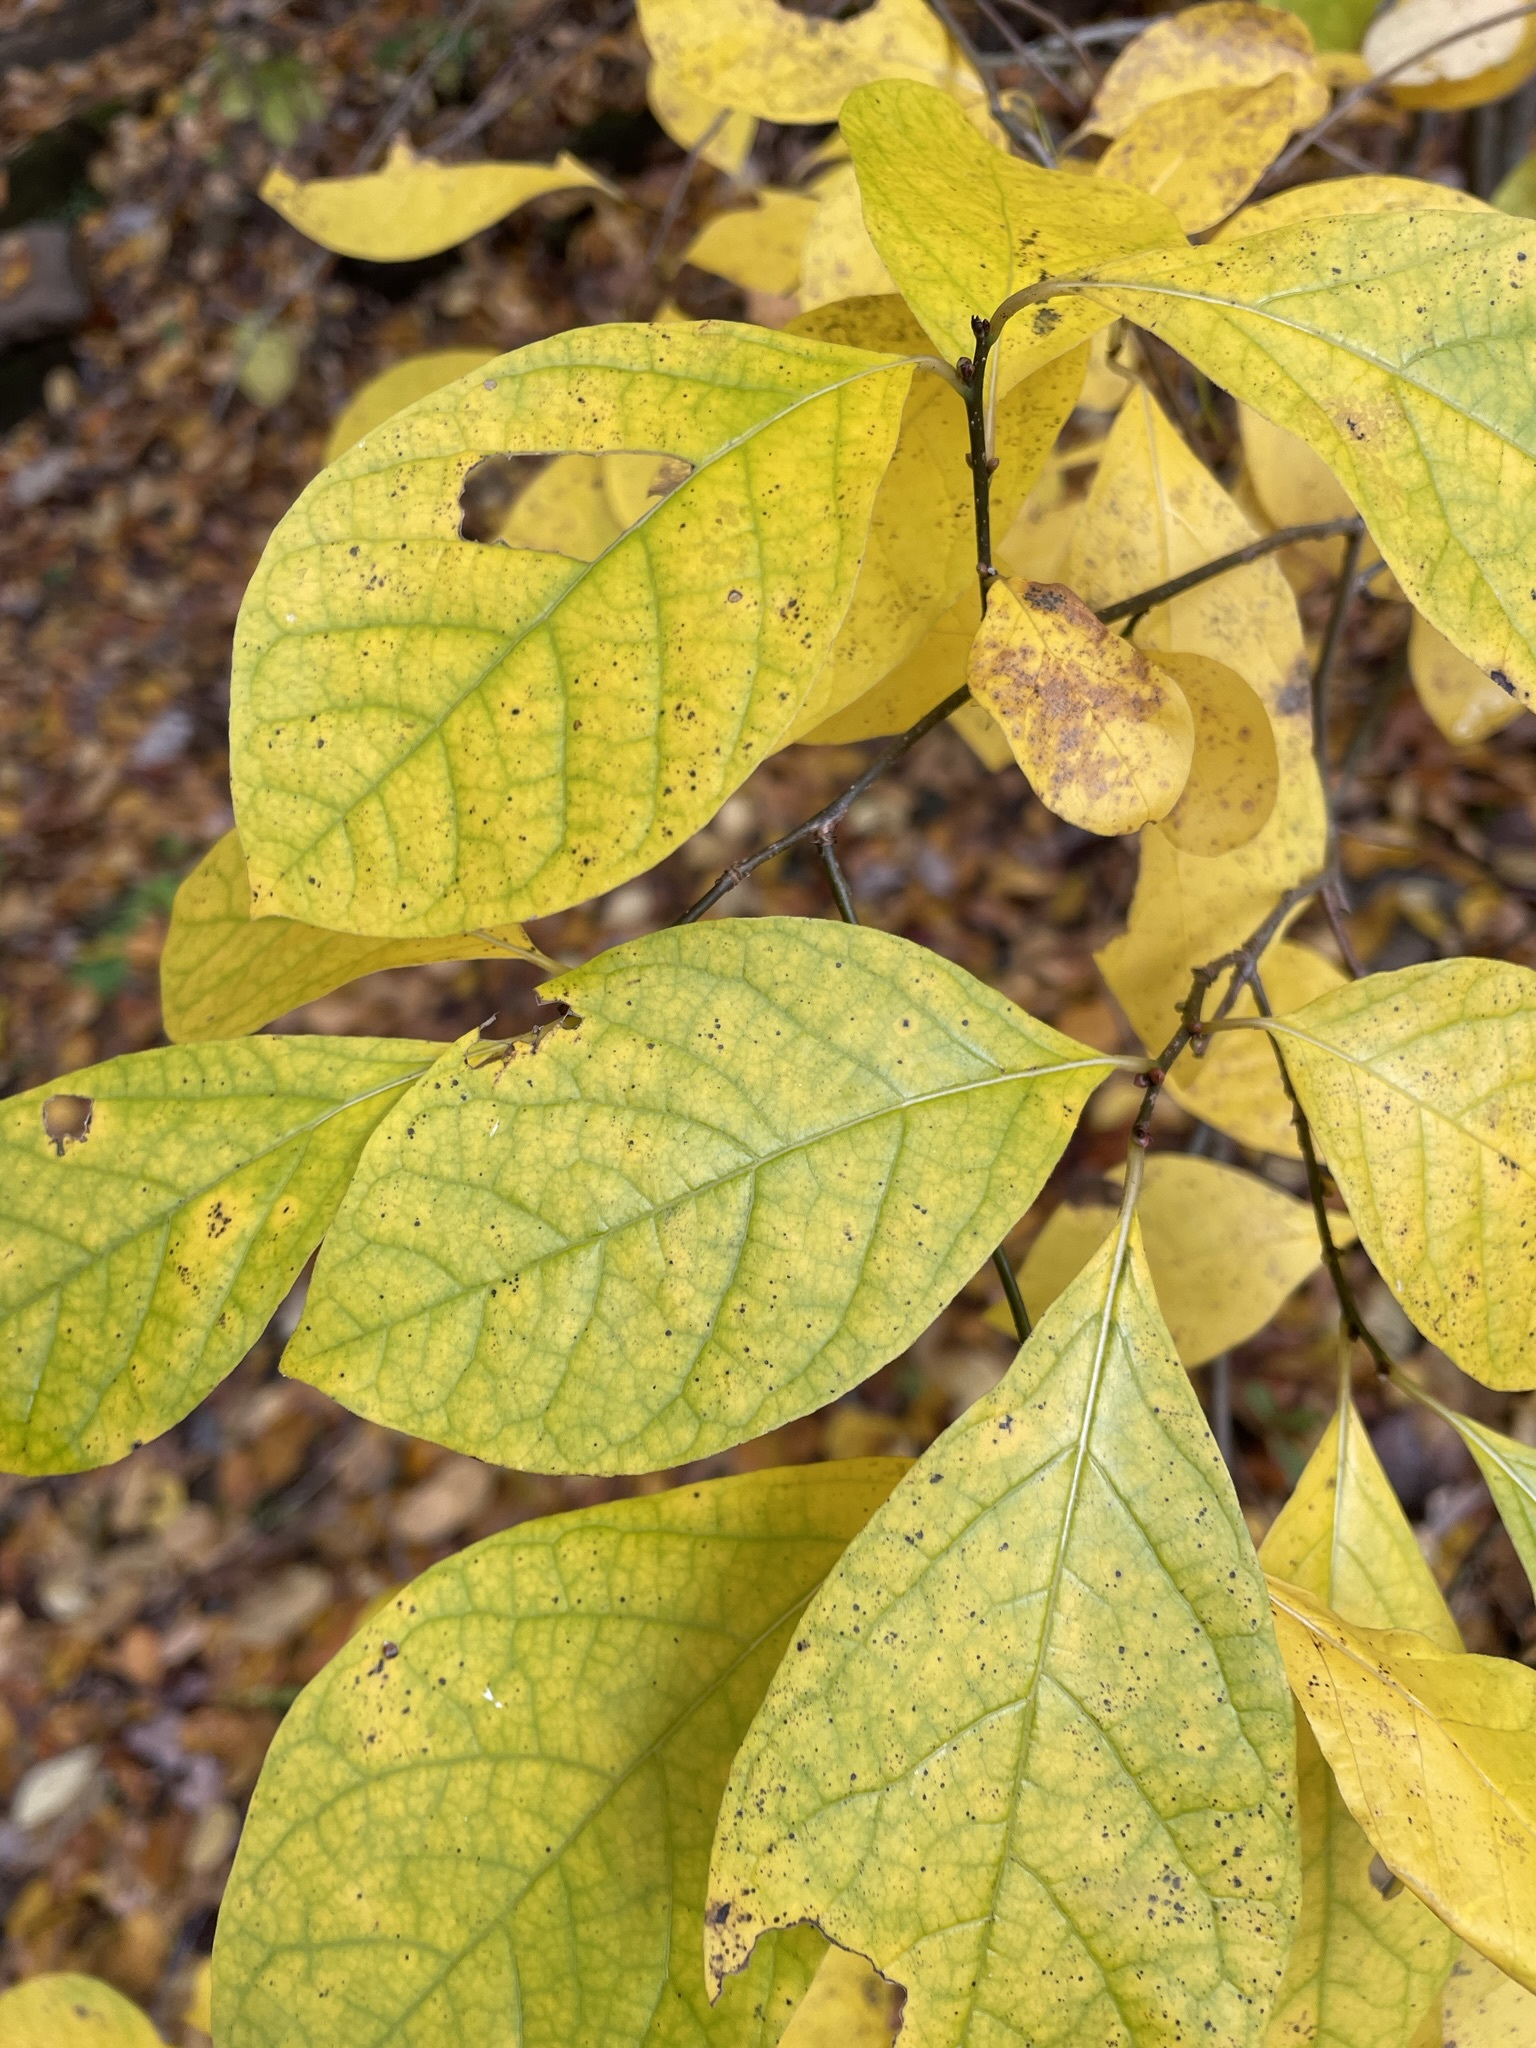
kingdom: Plantae
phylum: Tracheophyta
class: Magnoliopsida
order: Laurales
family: Lauraceae
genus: Lindera
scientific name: Lindera benzoin
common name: Spicebush
